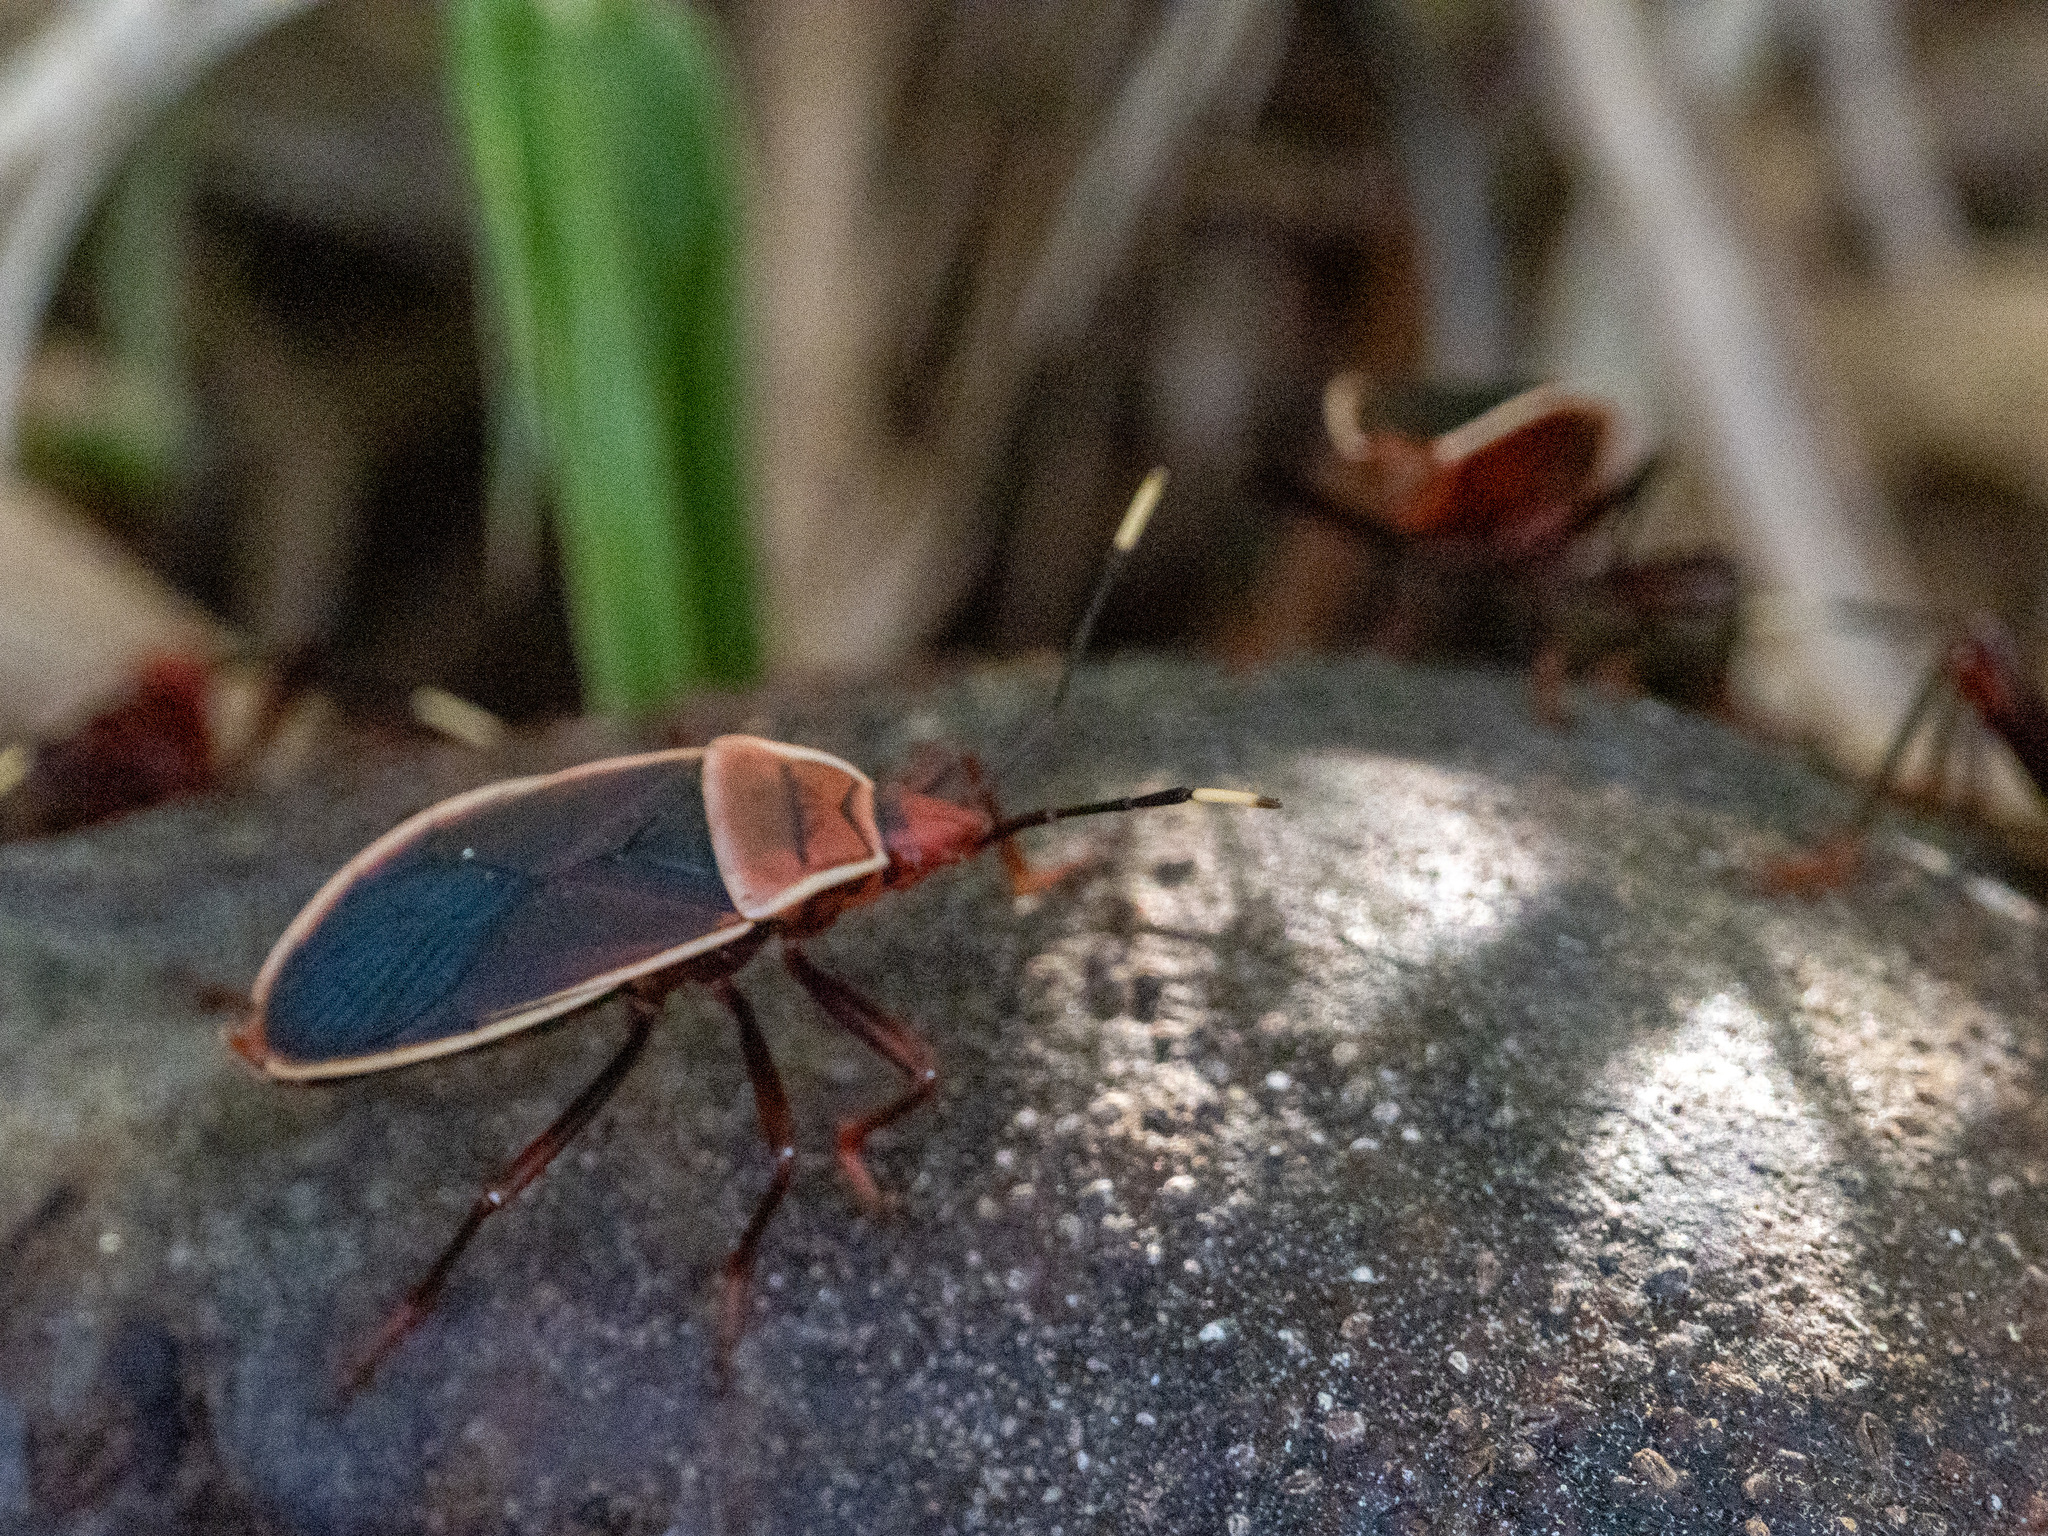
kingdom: Animalia
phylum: Arthropoda
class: Insecta
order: Hemiptera
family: Pyrrhocoridae
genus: Probergrothius
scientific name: Probergrothius varicornis
